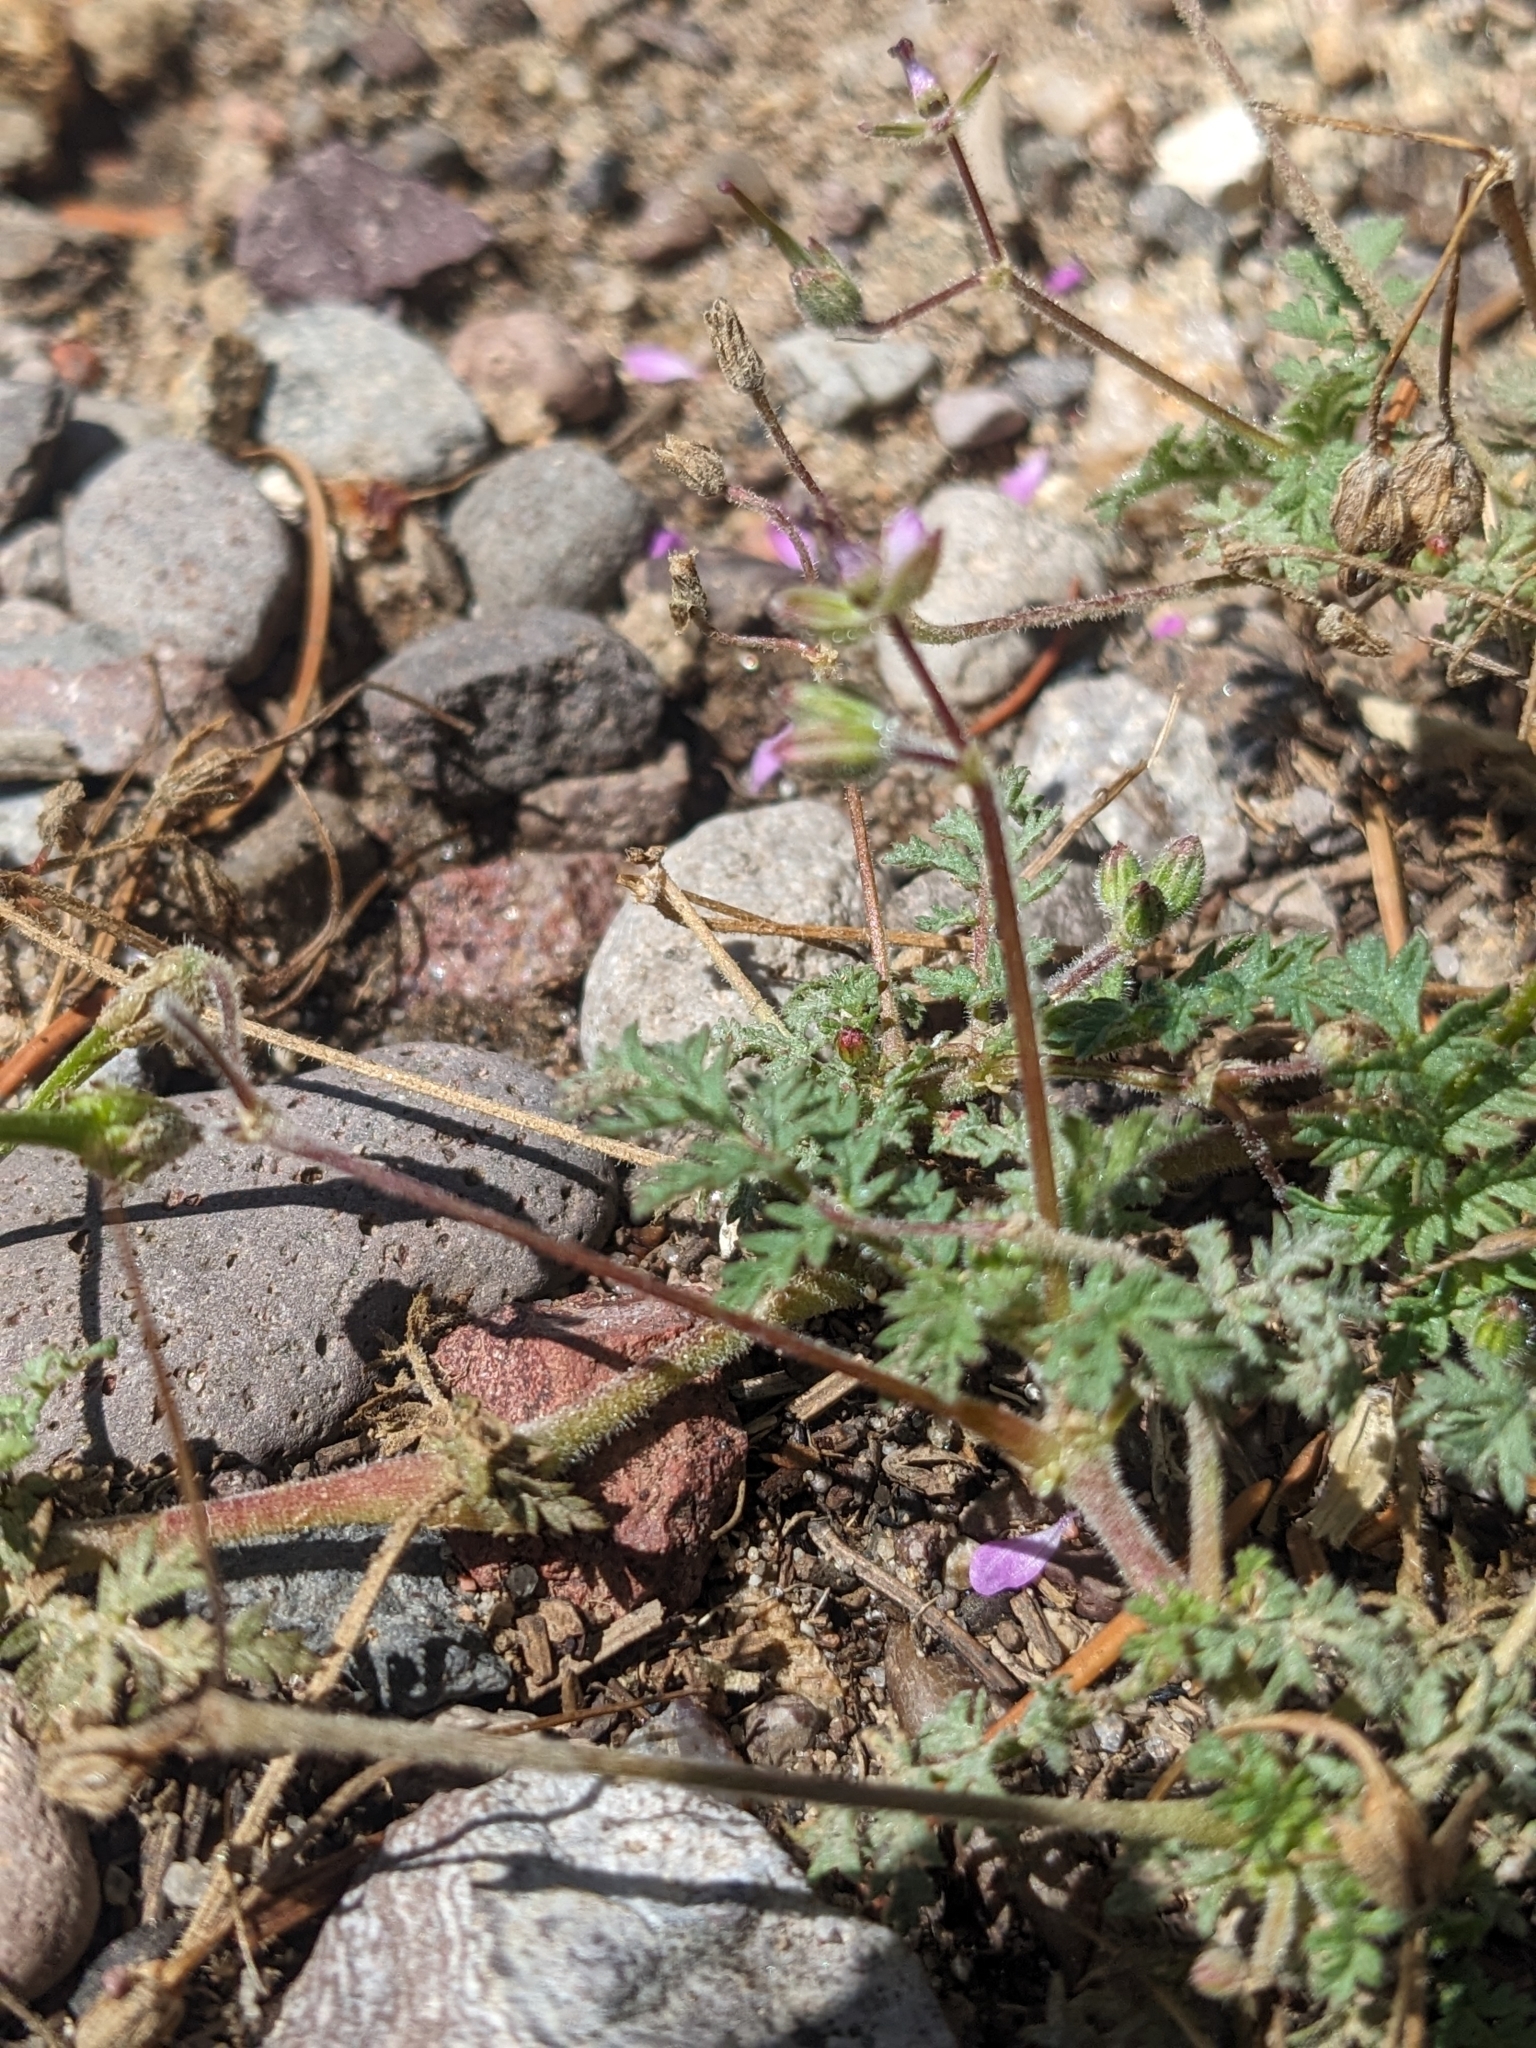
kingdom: Plantae
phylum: Tracheophyta
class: Magnoliopsida
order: Geraniales
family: Geraniaceae
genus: Erodium
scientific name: Erodium cicutarium
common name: Common stork's-bill
